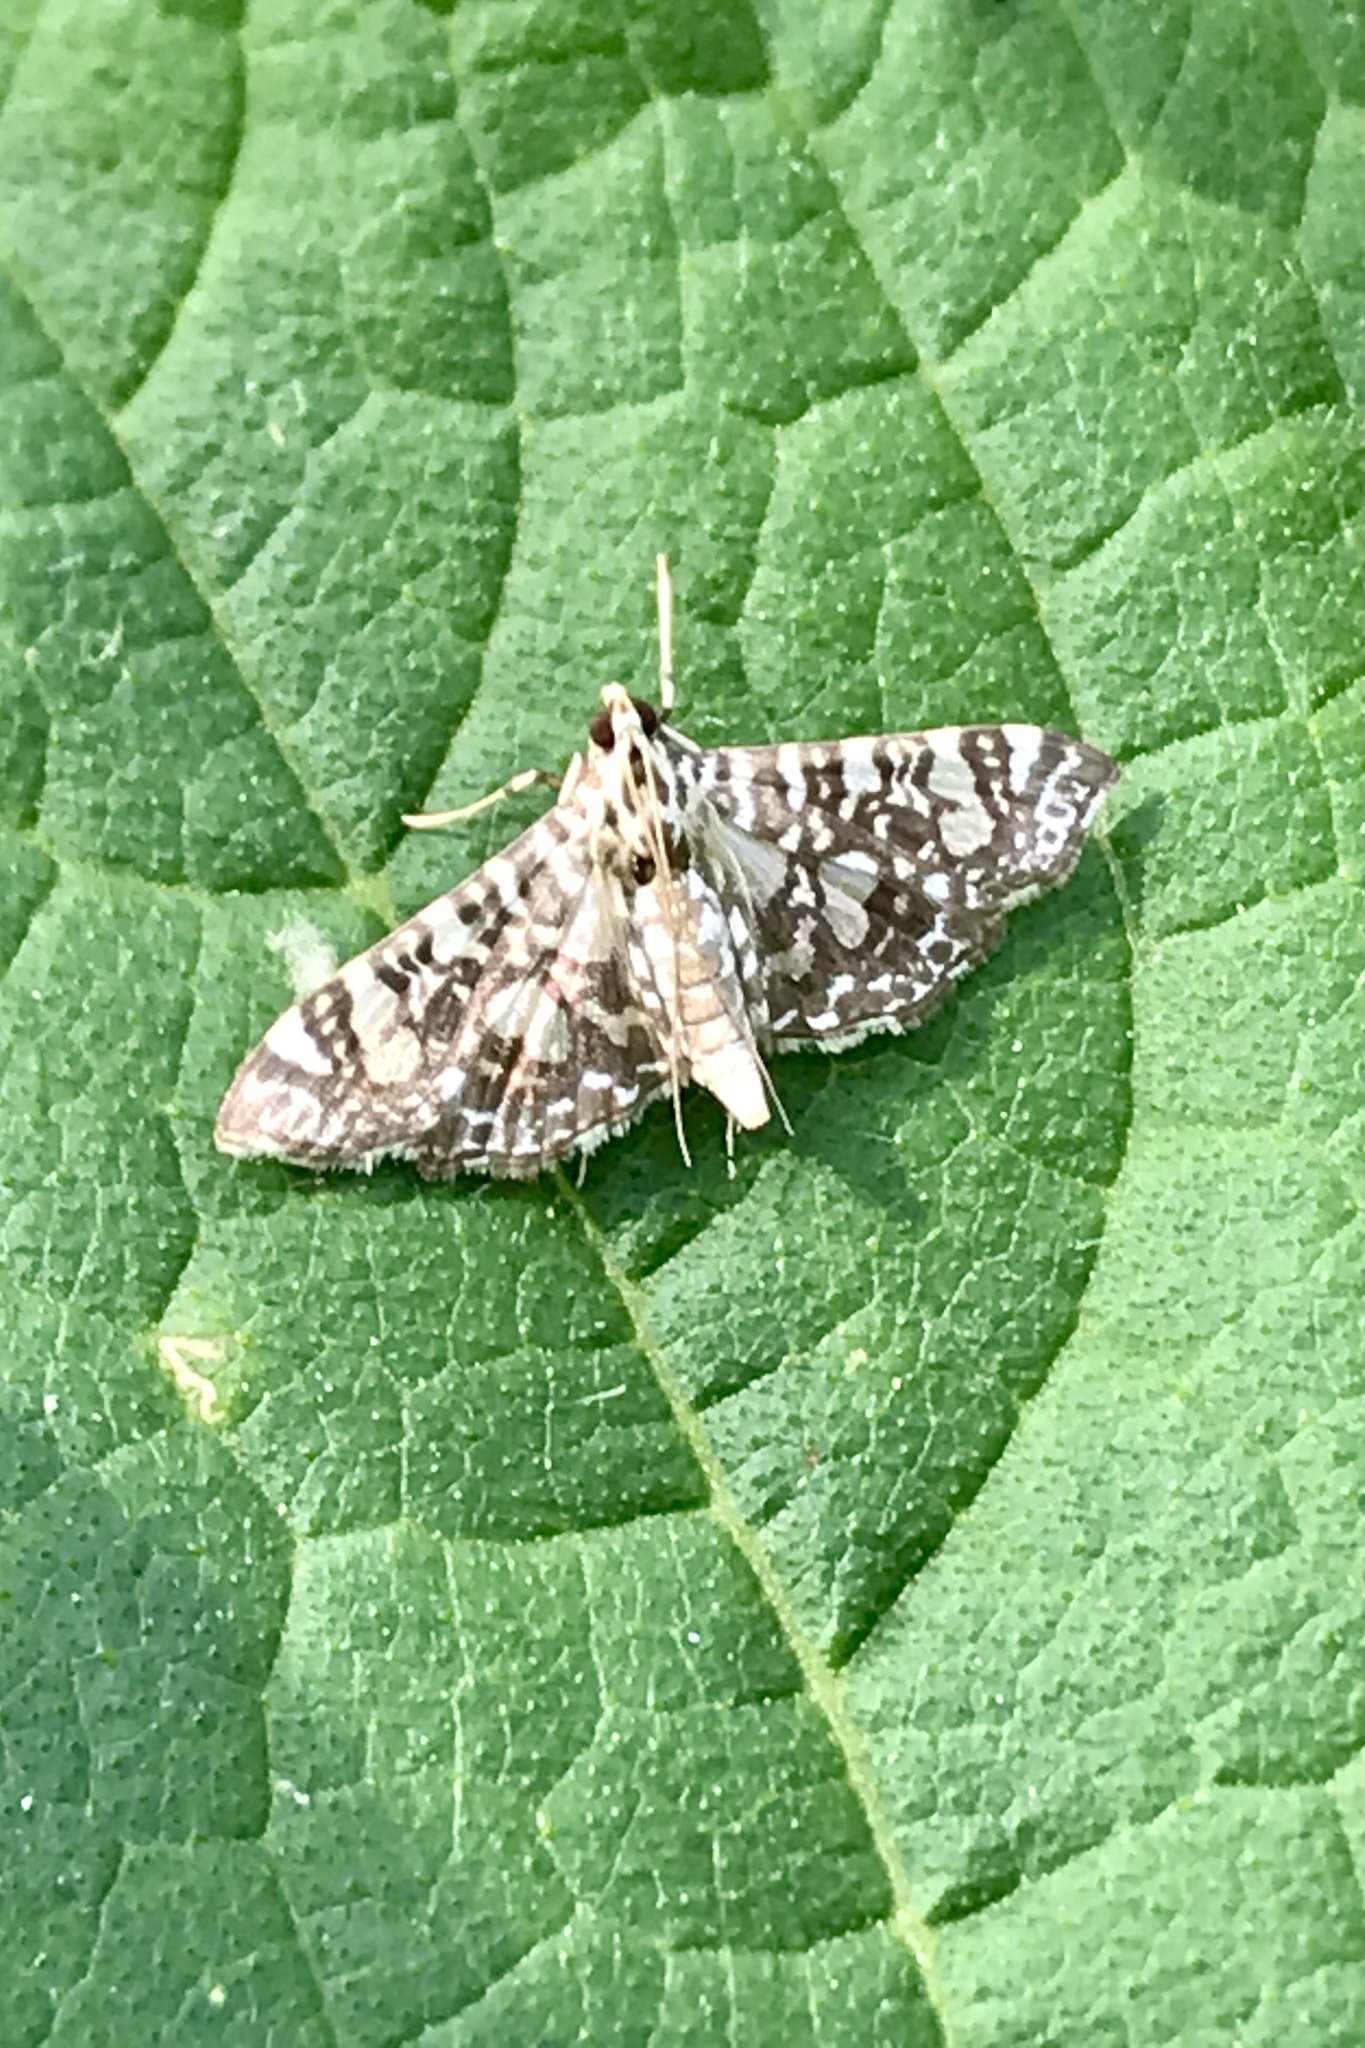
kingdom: Animalia
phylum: Arthropoda
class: Insecta
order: Lepidoptera
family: Crambidae
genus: Glyphodes
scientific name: Glyphodes onychinalis
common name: Swan plant moth
